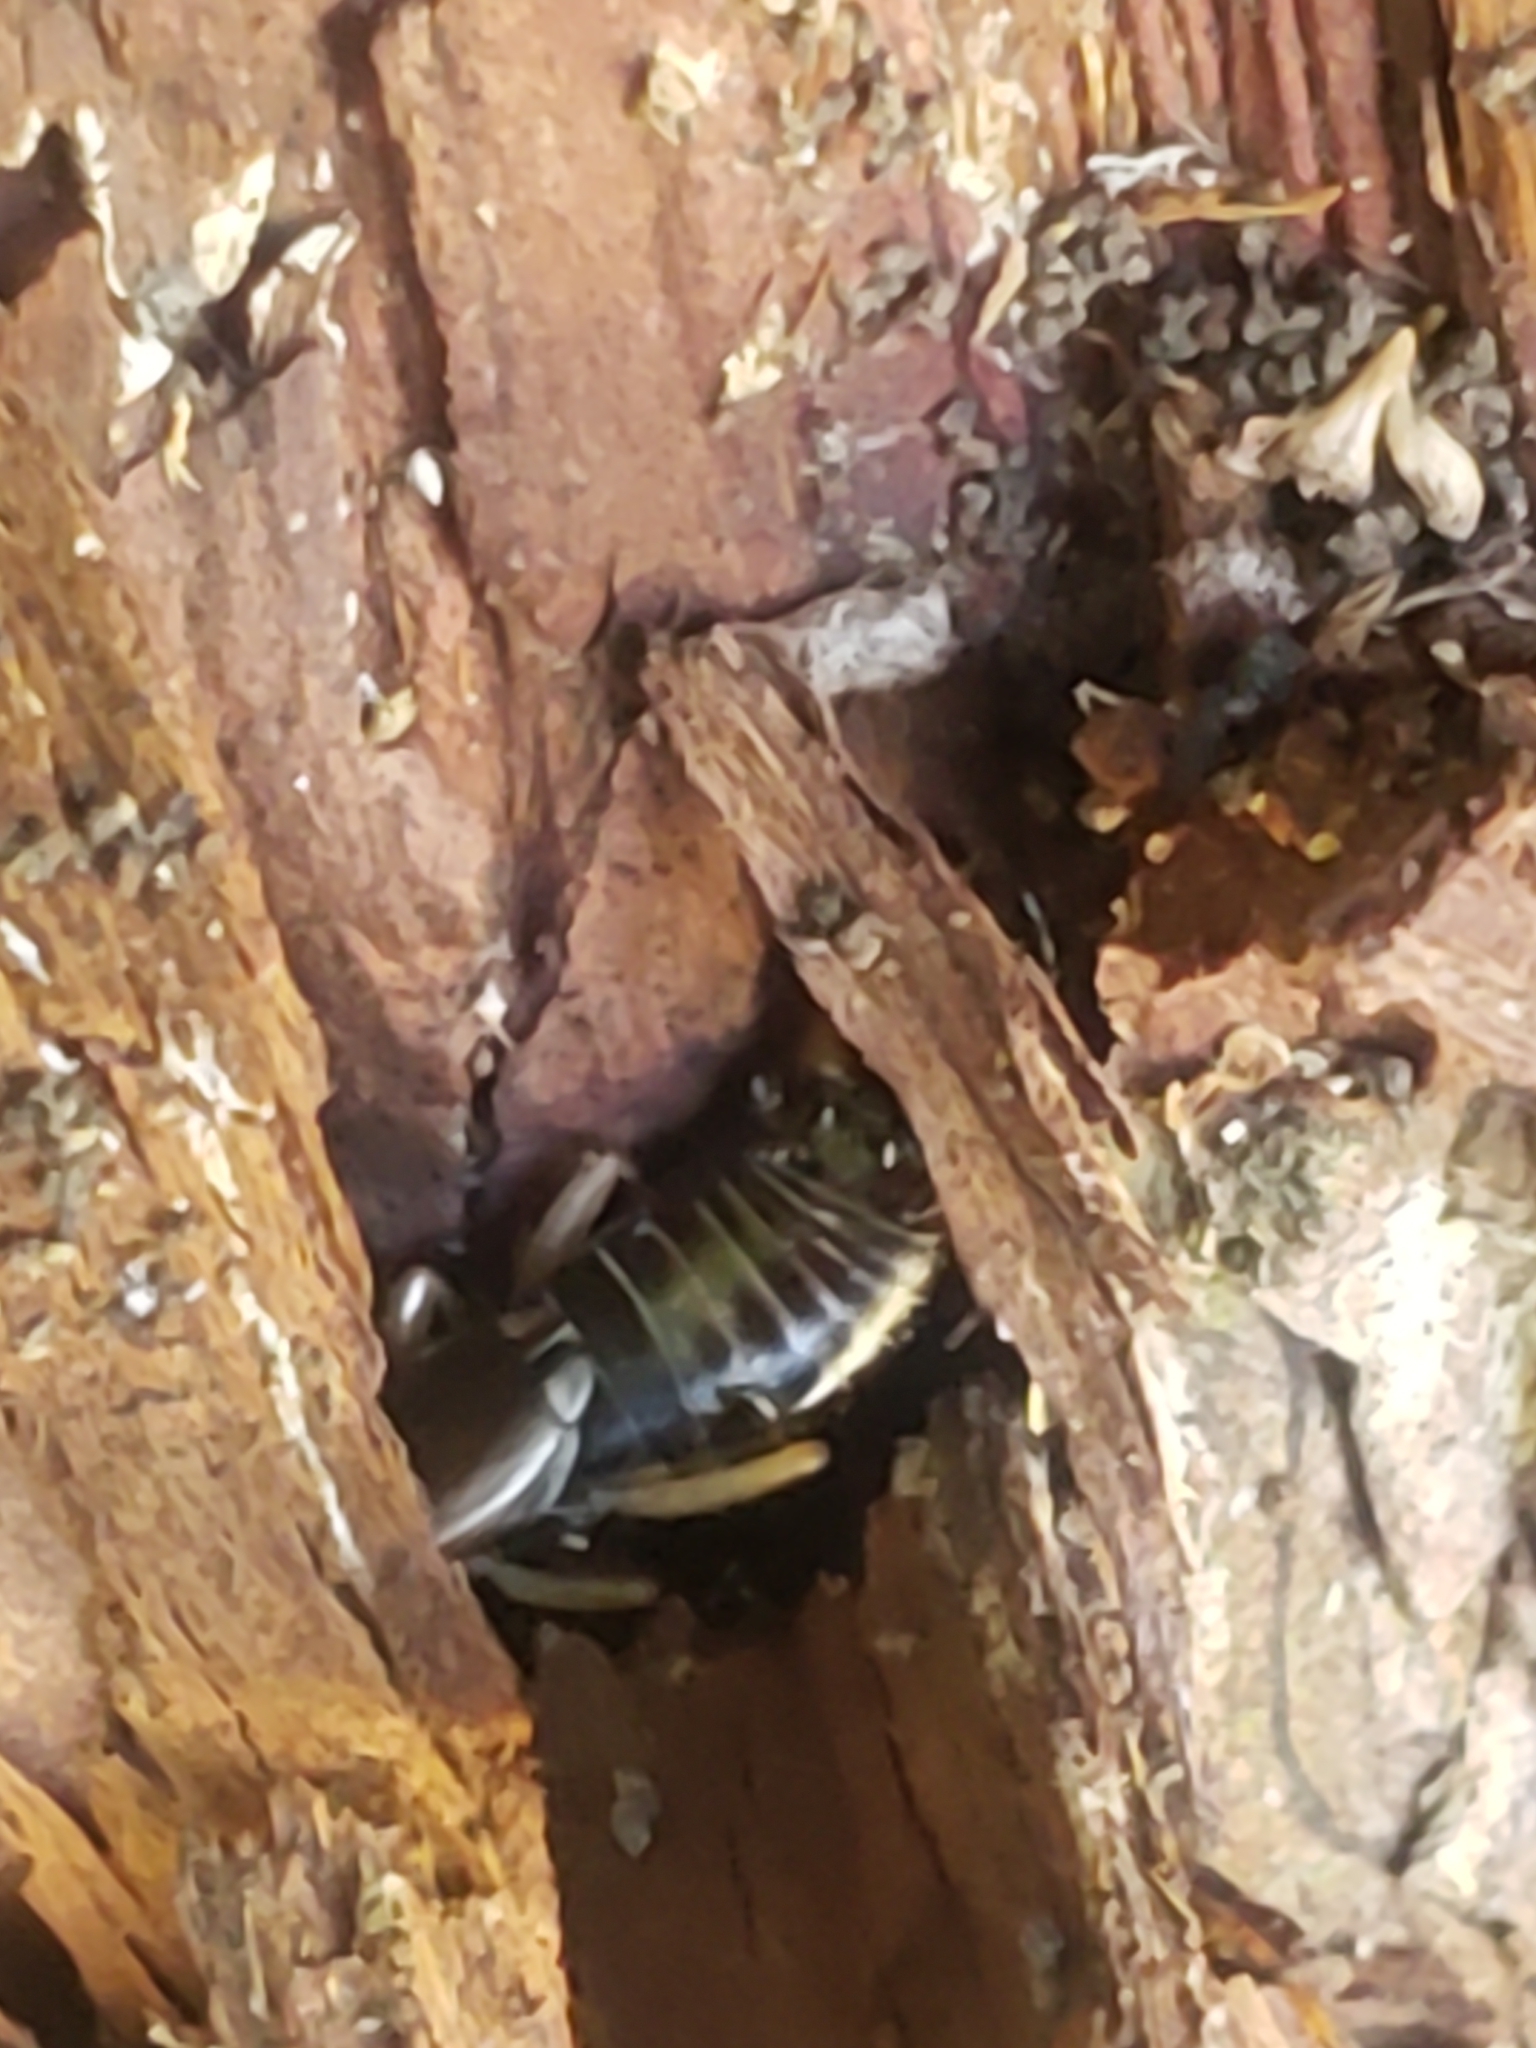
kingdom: Animalia
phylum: Arthropoda
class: Insecta
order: Dermaptera
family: Forficulidae
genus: Forficula
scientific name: Forficula
